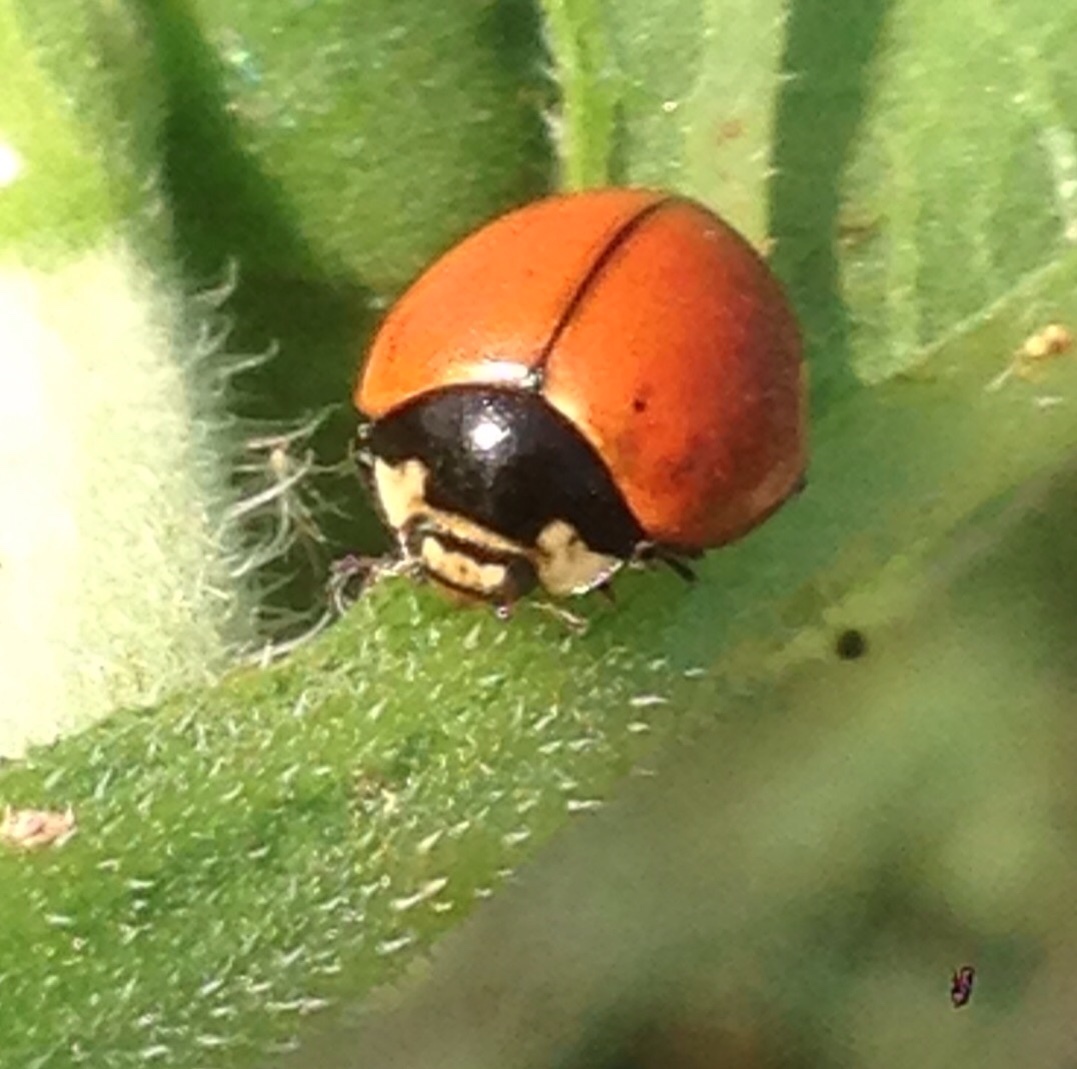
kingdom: Animalia
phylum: Arthropoda
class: Insecta
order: Coleoptera
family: Coccinellidae
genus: Coccinella
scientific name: Coccinella novemnotata
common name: Nine-spotted lady beetle
